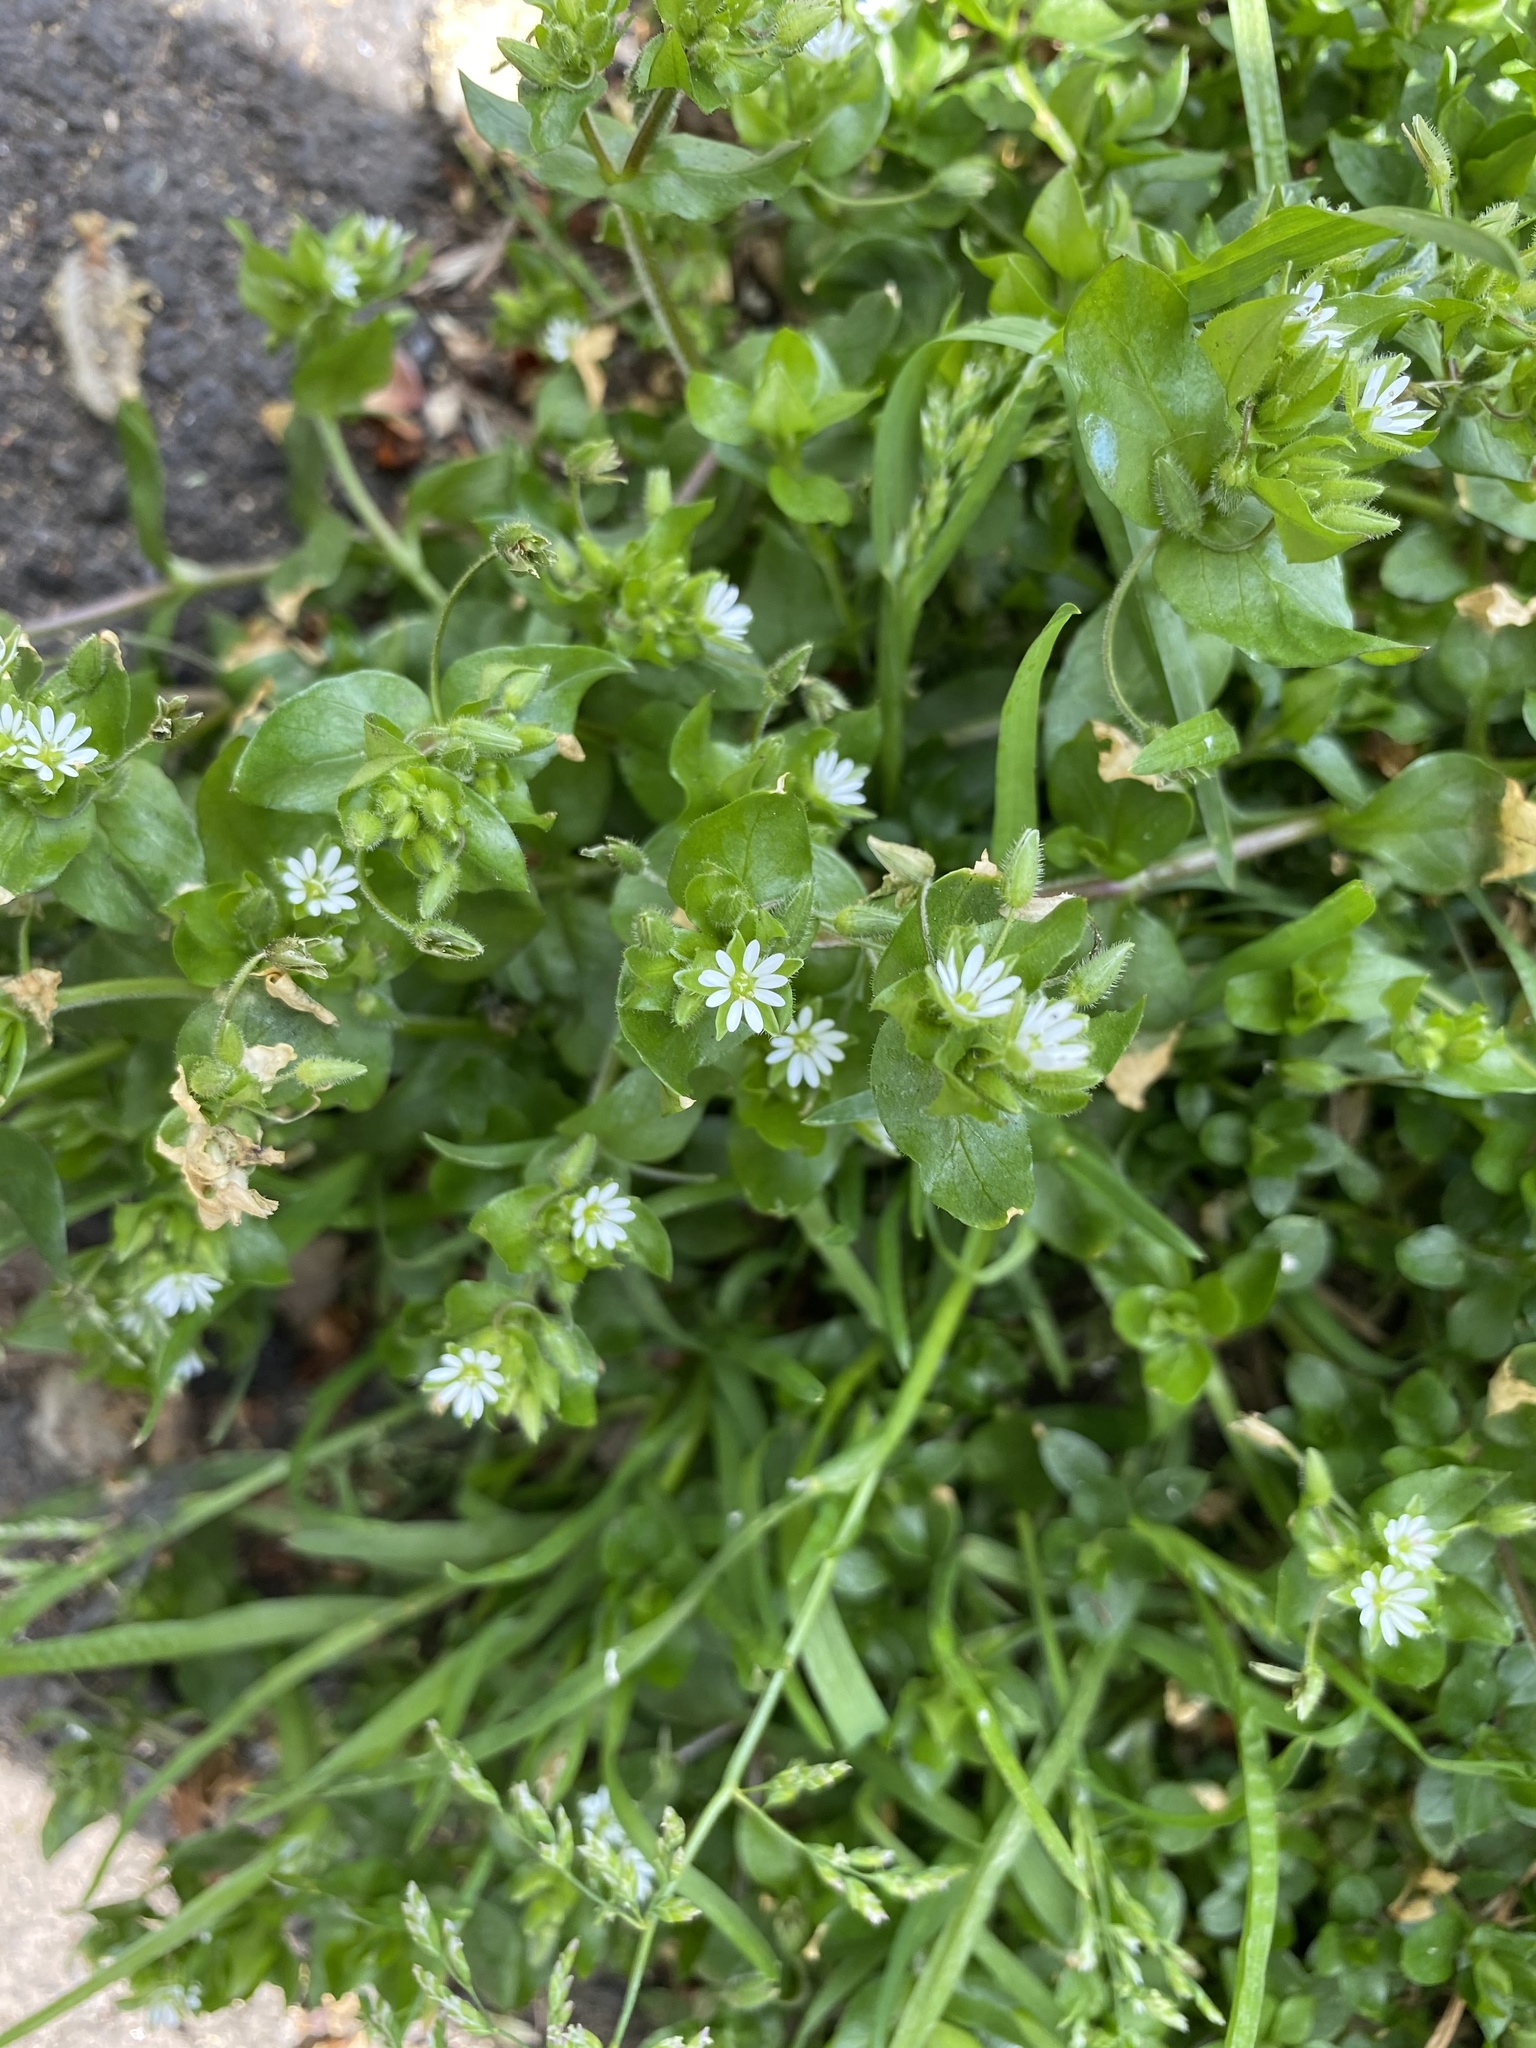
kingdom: Plantae
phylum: Tracheophyta
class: Magnoliopsida
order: Caryophyllales
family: Caryophyllaceae
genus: Stellaria
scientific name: Stellaria media
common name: Common chickweed
